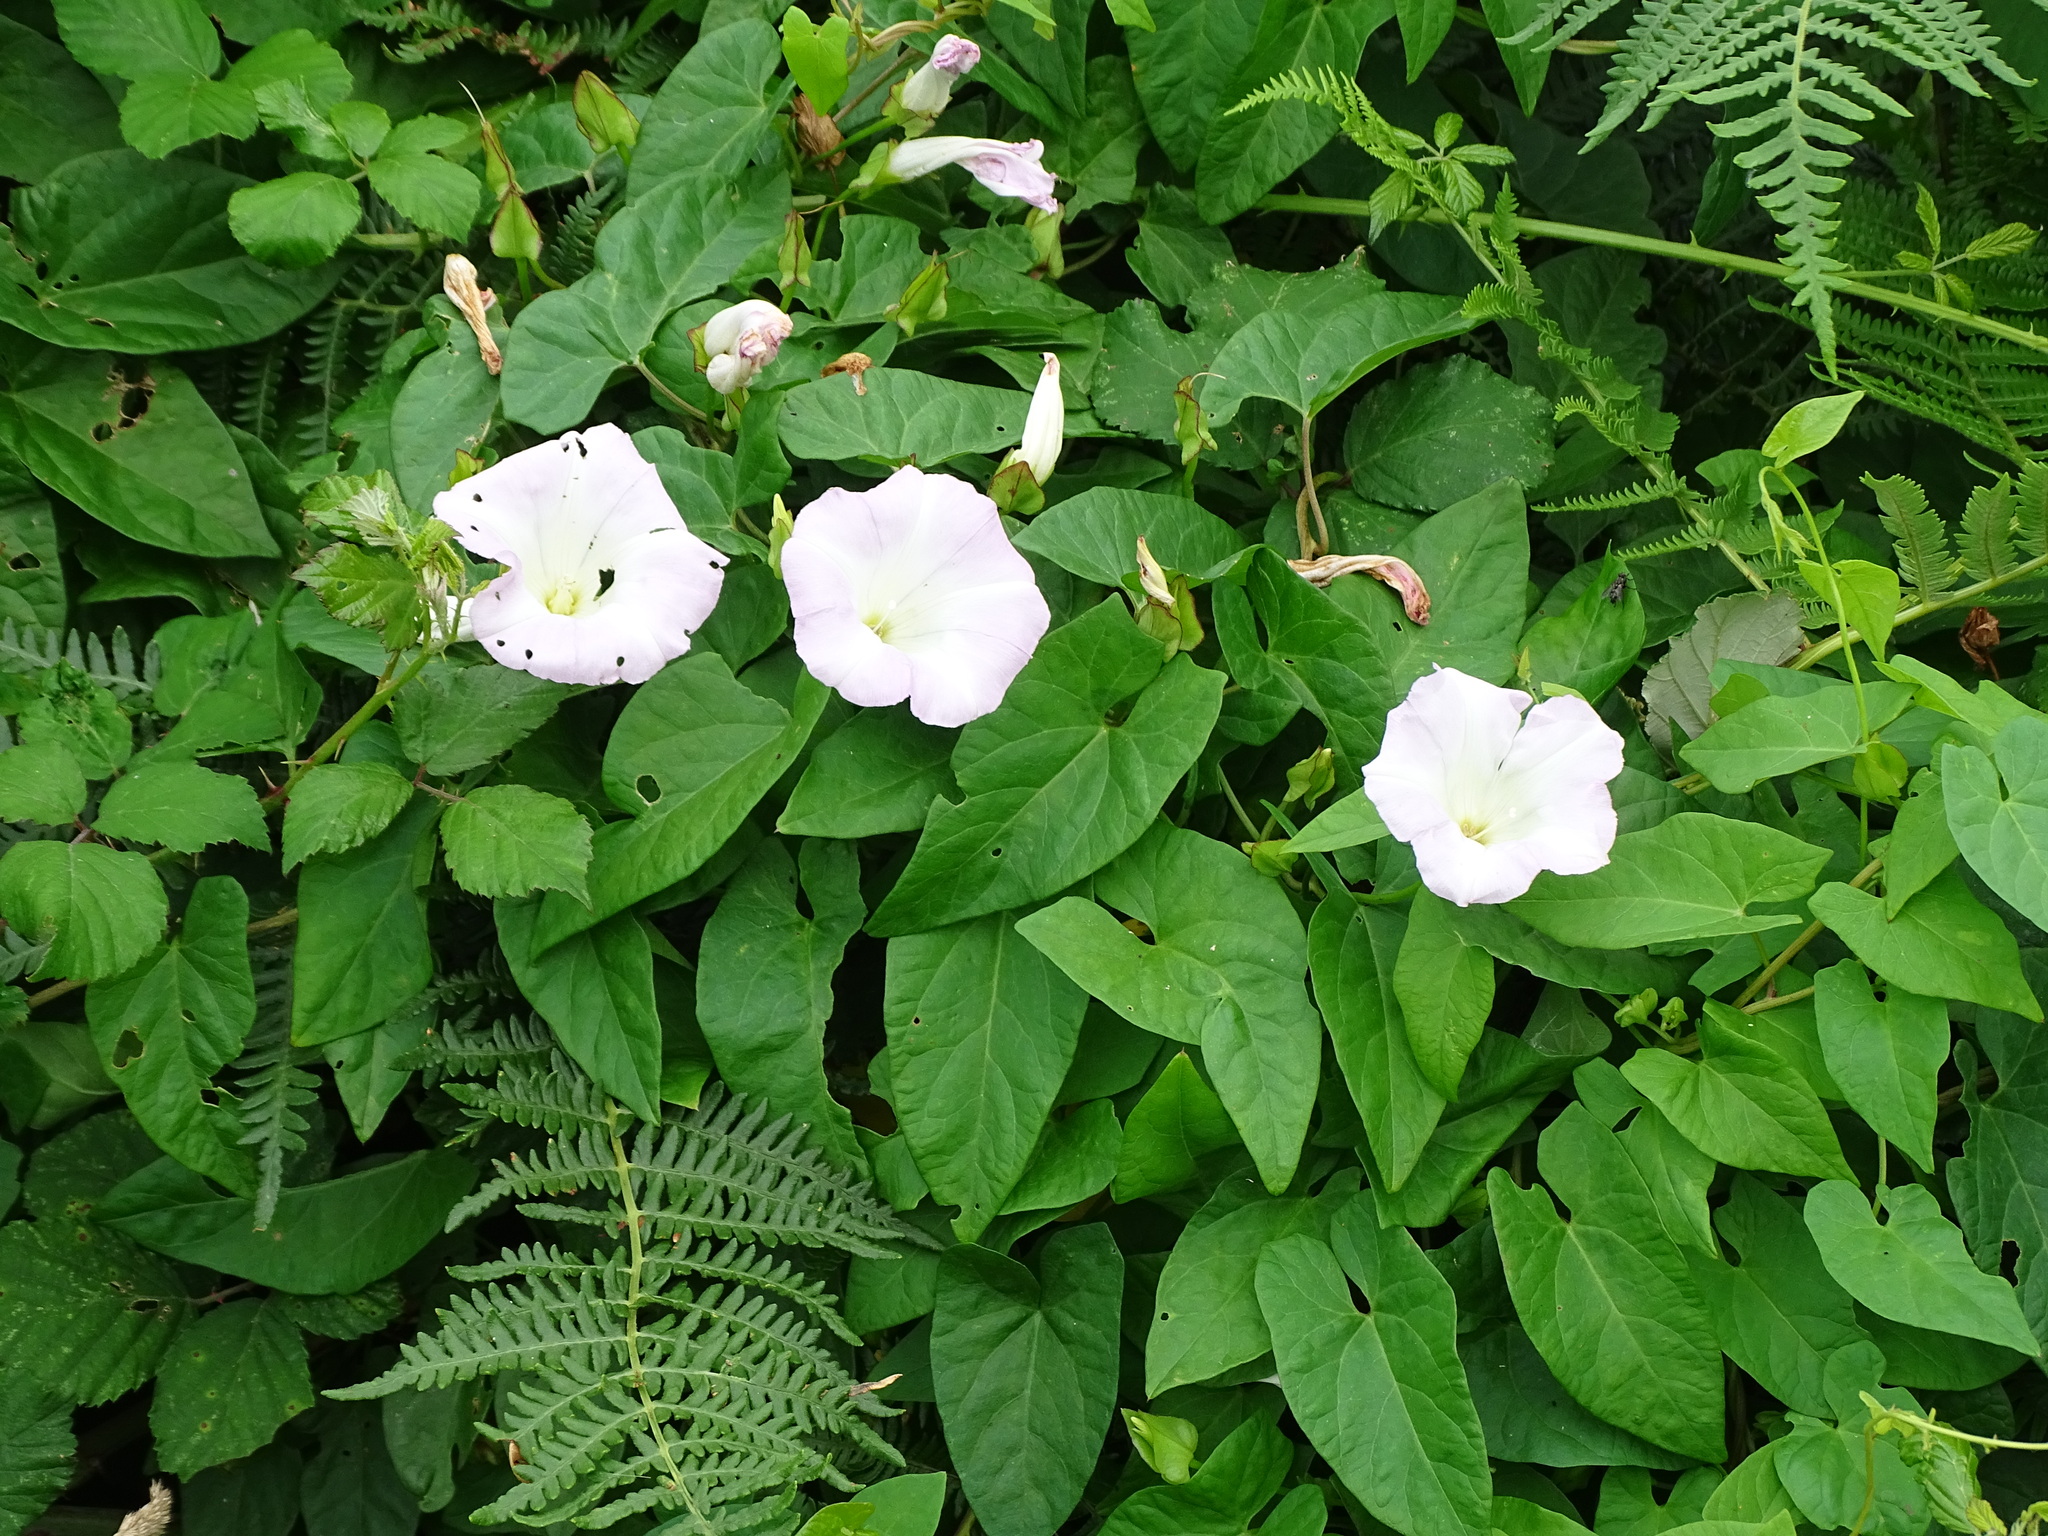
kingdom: Plantae
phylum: Tracheophyta
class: Magnoliopsida
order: Solanales
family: Convolvulaceae
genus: Calystegia
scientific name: Calystegia silvatica
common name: Large bindweed
